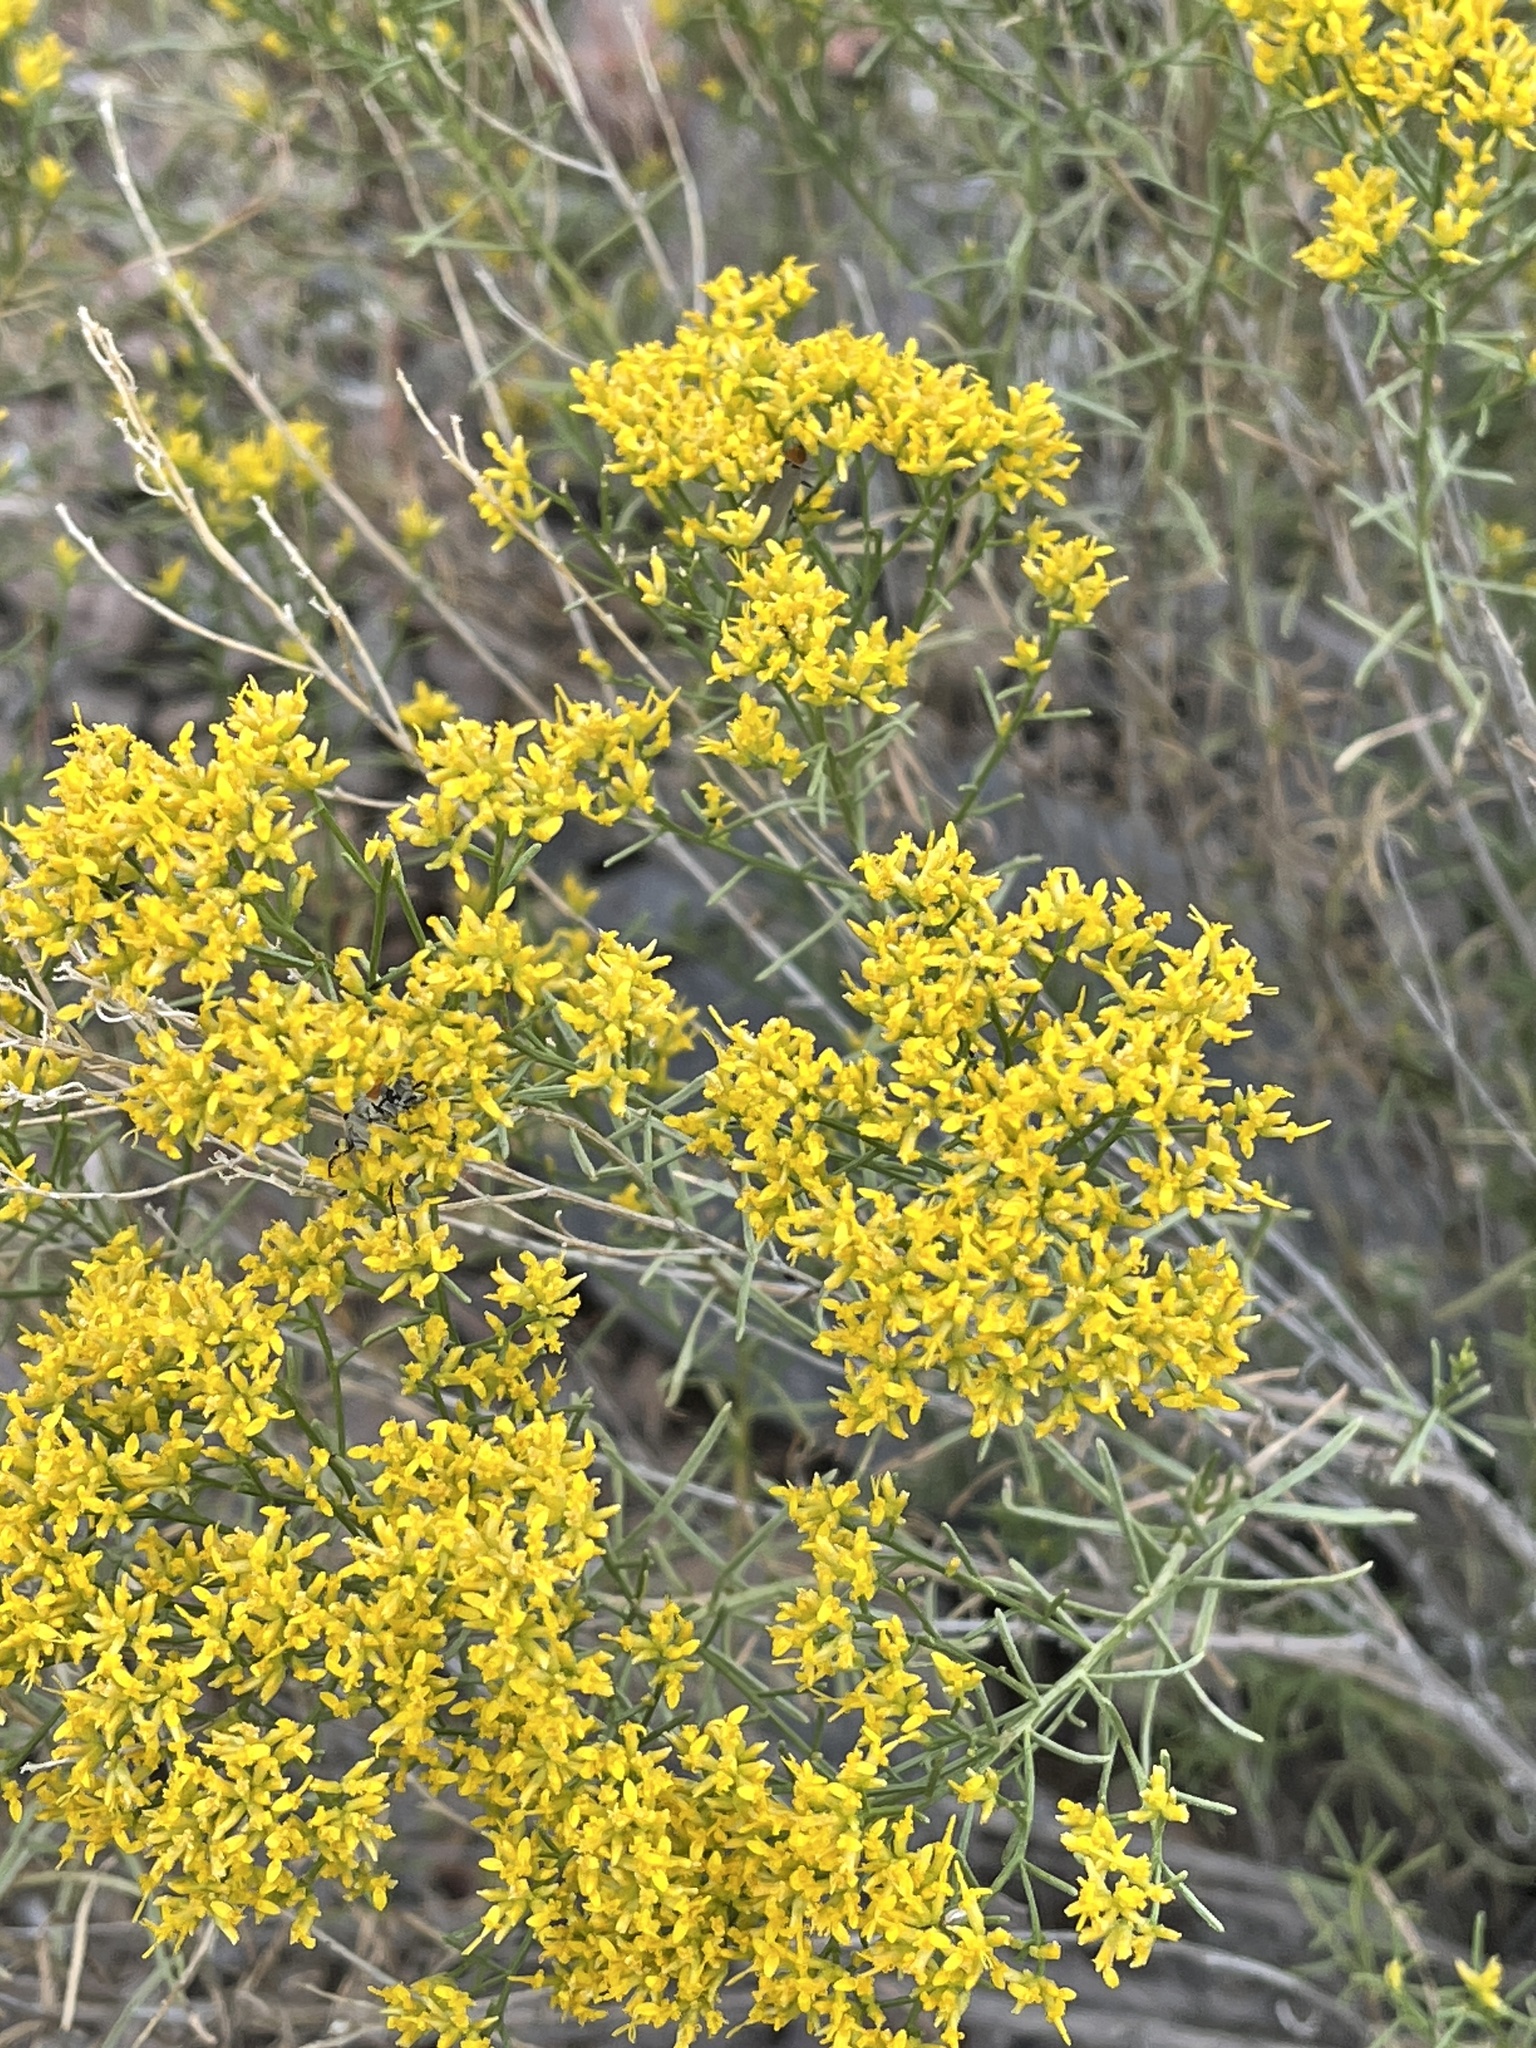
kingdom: Plantae
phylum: Tracheophyta
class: Magnoliopsida
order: Asterales
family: Asteraceae
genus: Gutierrezia
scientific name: Gutierrezia microcephala
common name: Thread snakeweed
